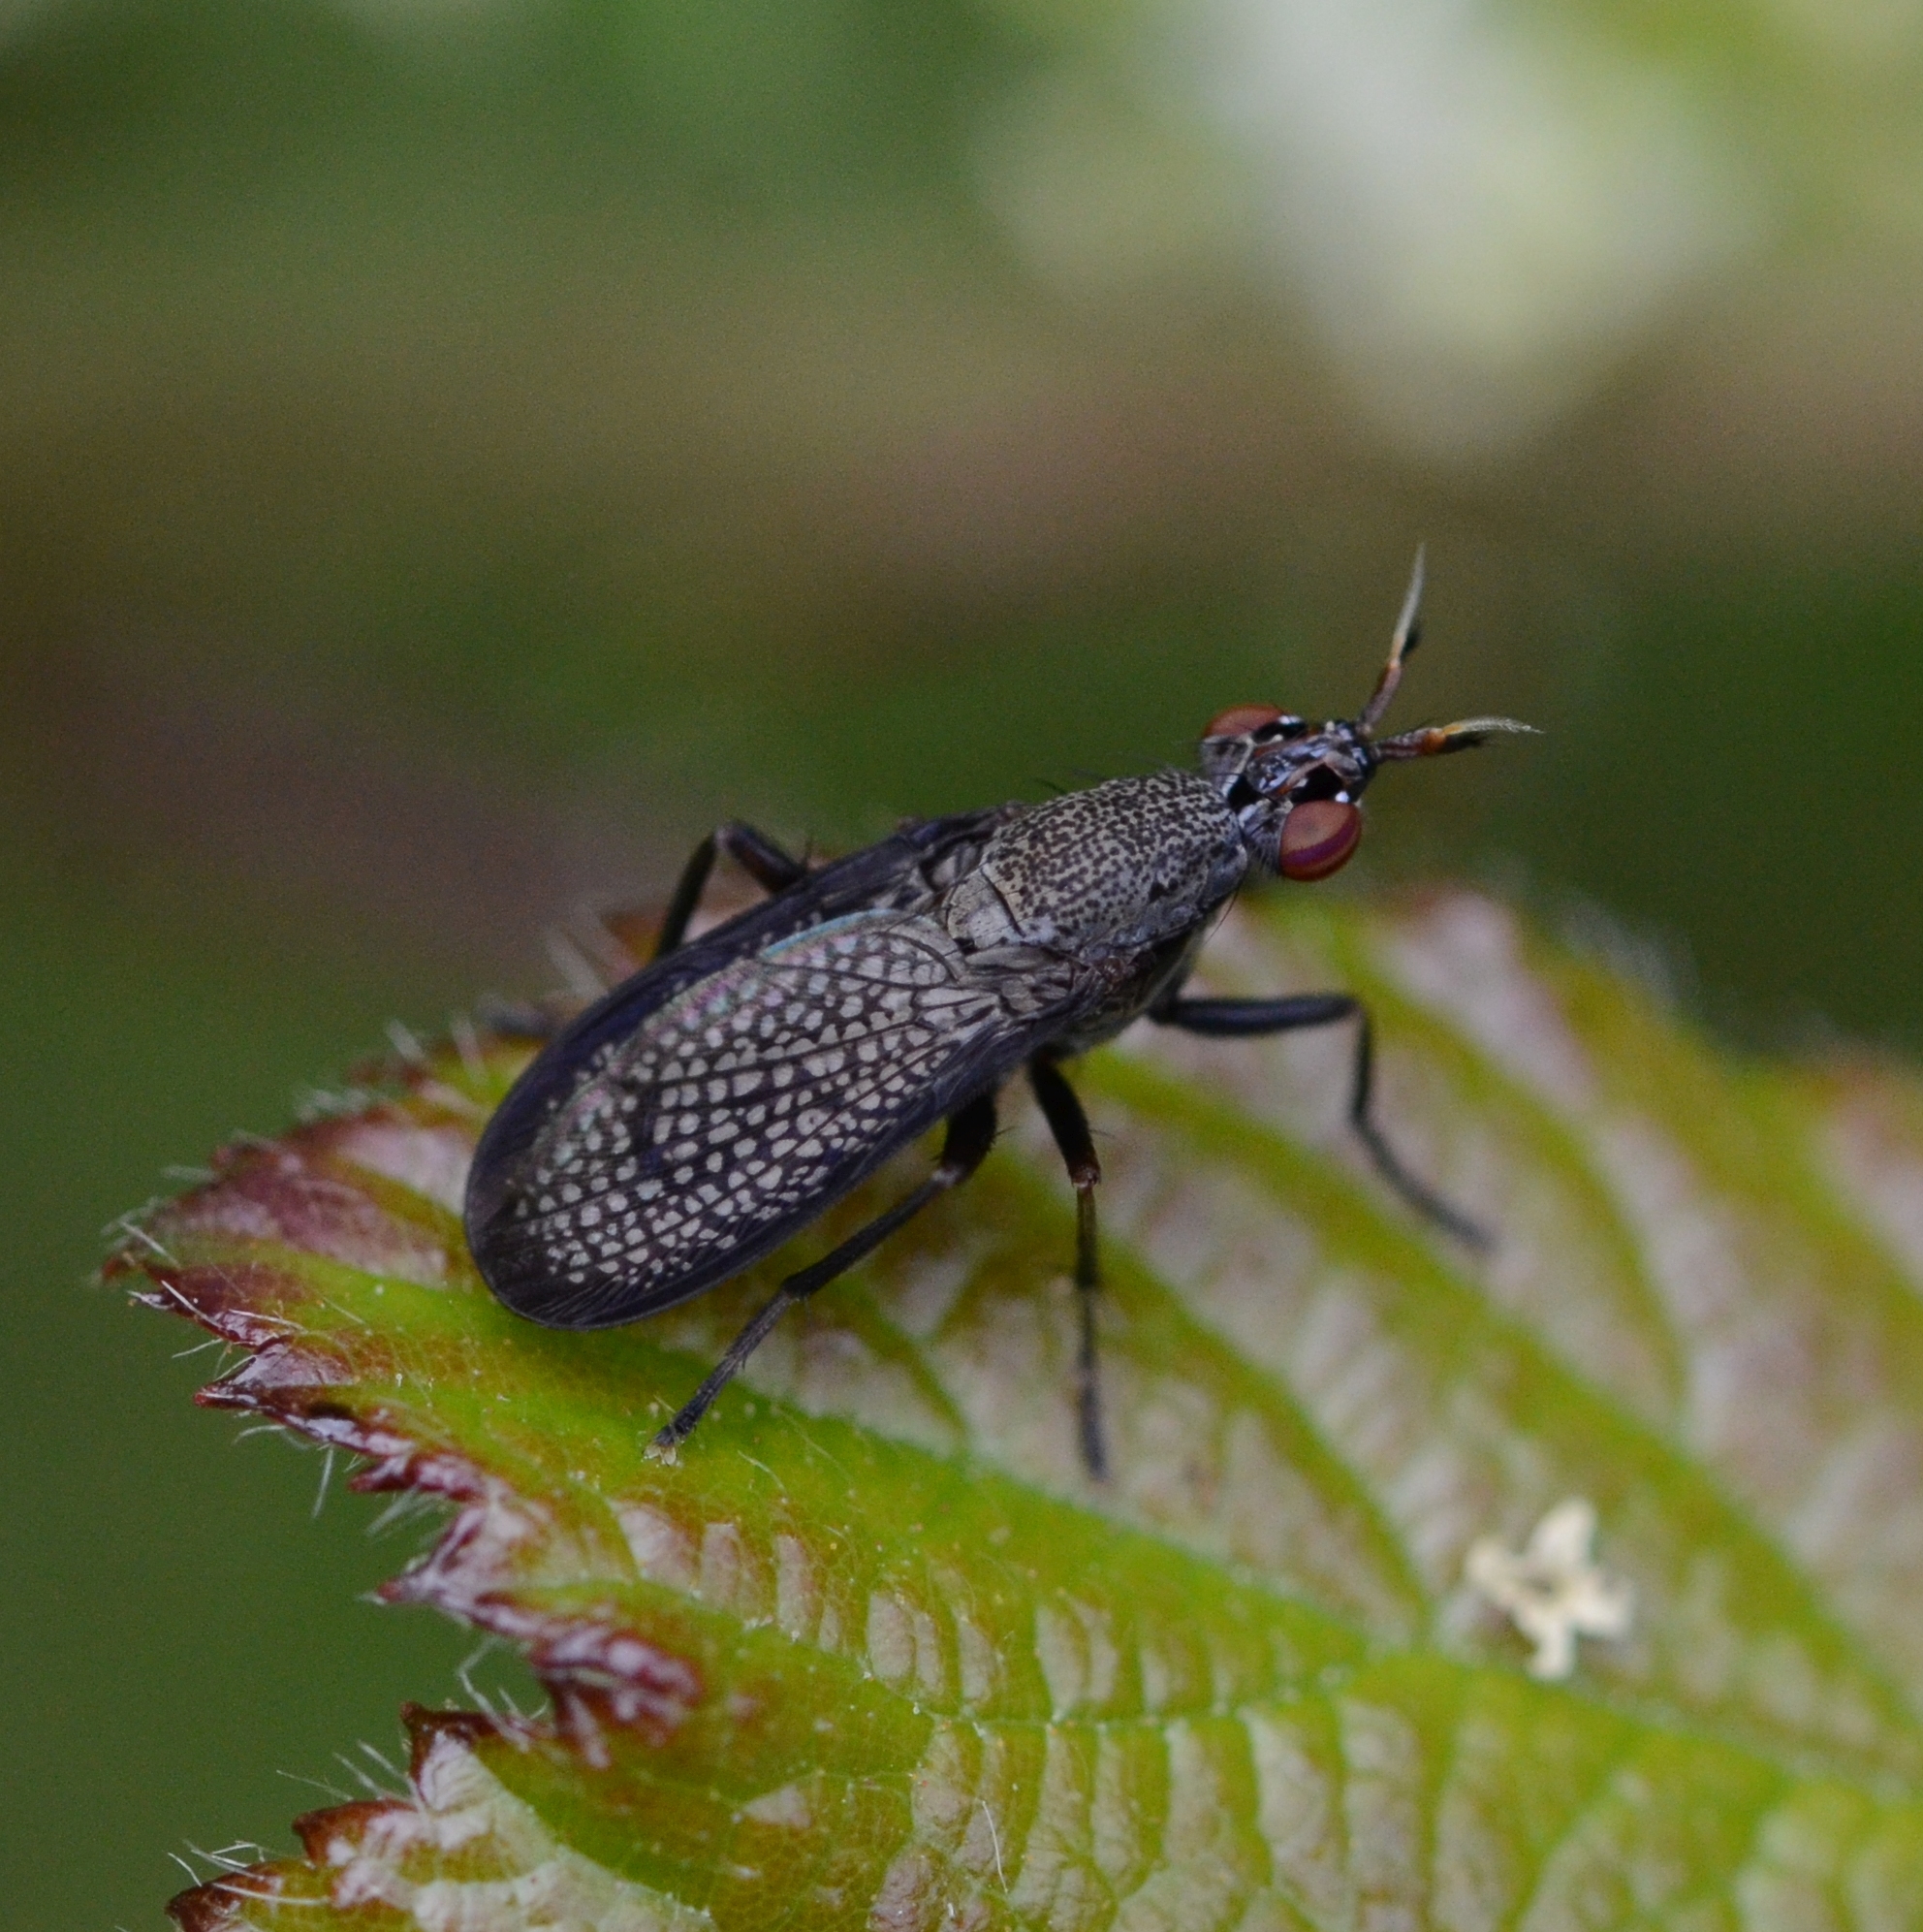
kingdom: Animalia
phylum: Arthropoda
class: Insecta
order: Diptera
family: Sciomyzidae
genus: Coremacera
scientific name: Coremacera marginata
